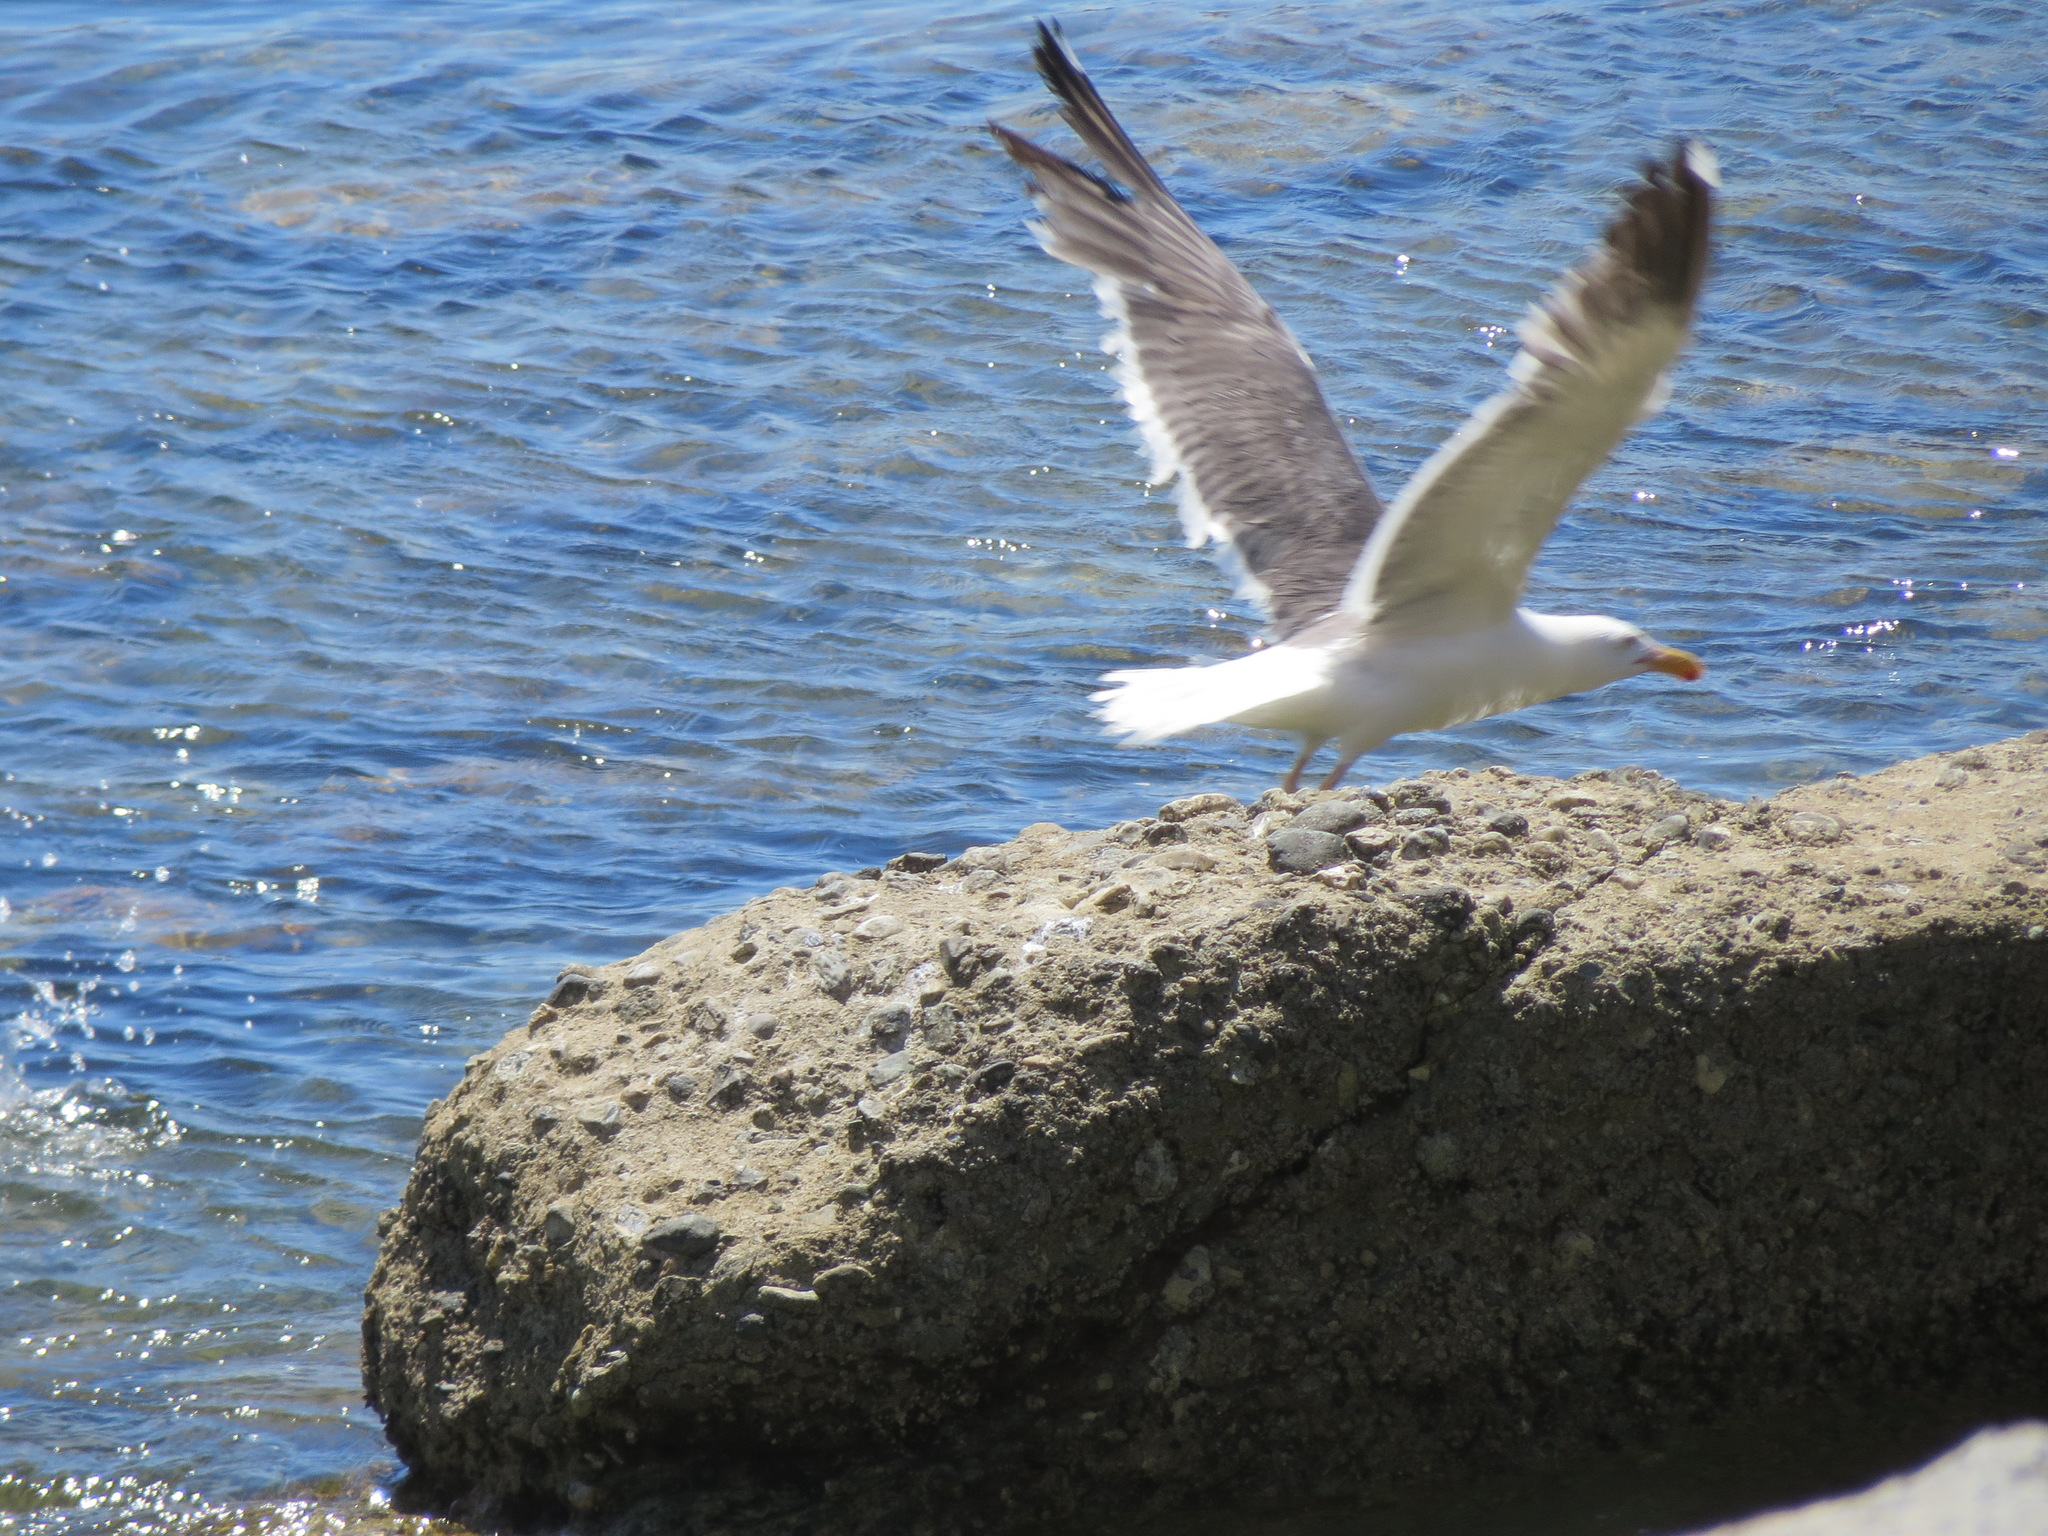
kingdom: Animalia
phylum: Chordata
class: Aves
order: Charadriiformes
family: Laridae
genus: Larus
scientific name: Larus occidentalis
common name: Western gull
